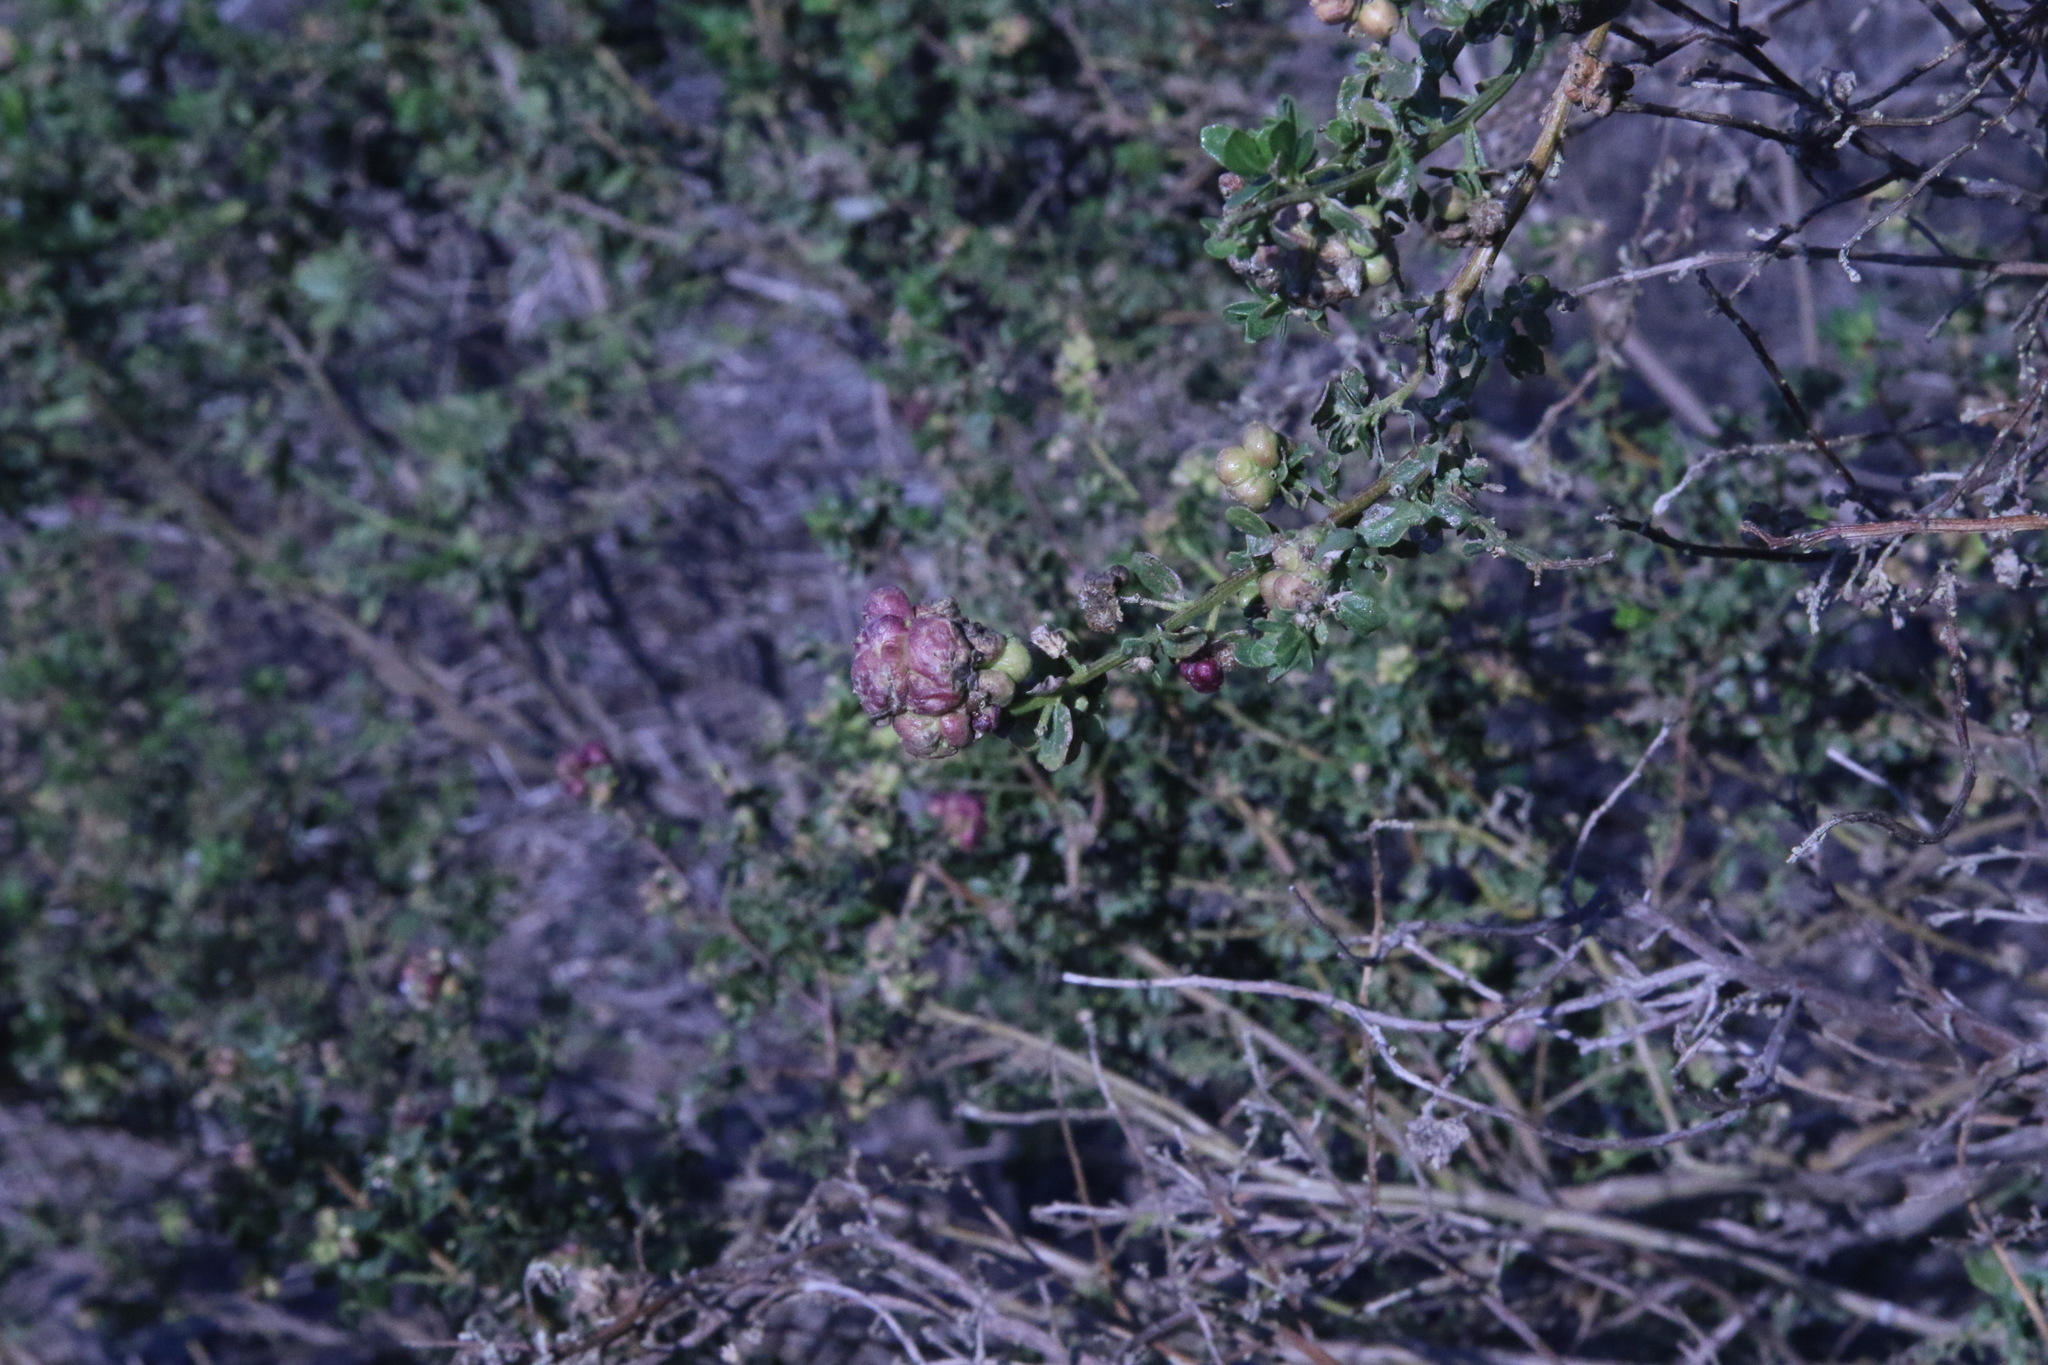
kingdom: Animalia
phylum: Arthropoda
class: Insecta
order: Diptera
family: Cecidomyiidae
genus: Rhopalomyia
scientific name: Rhopalomyia californica
